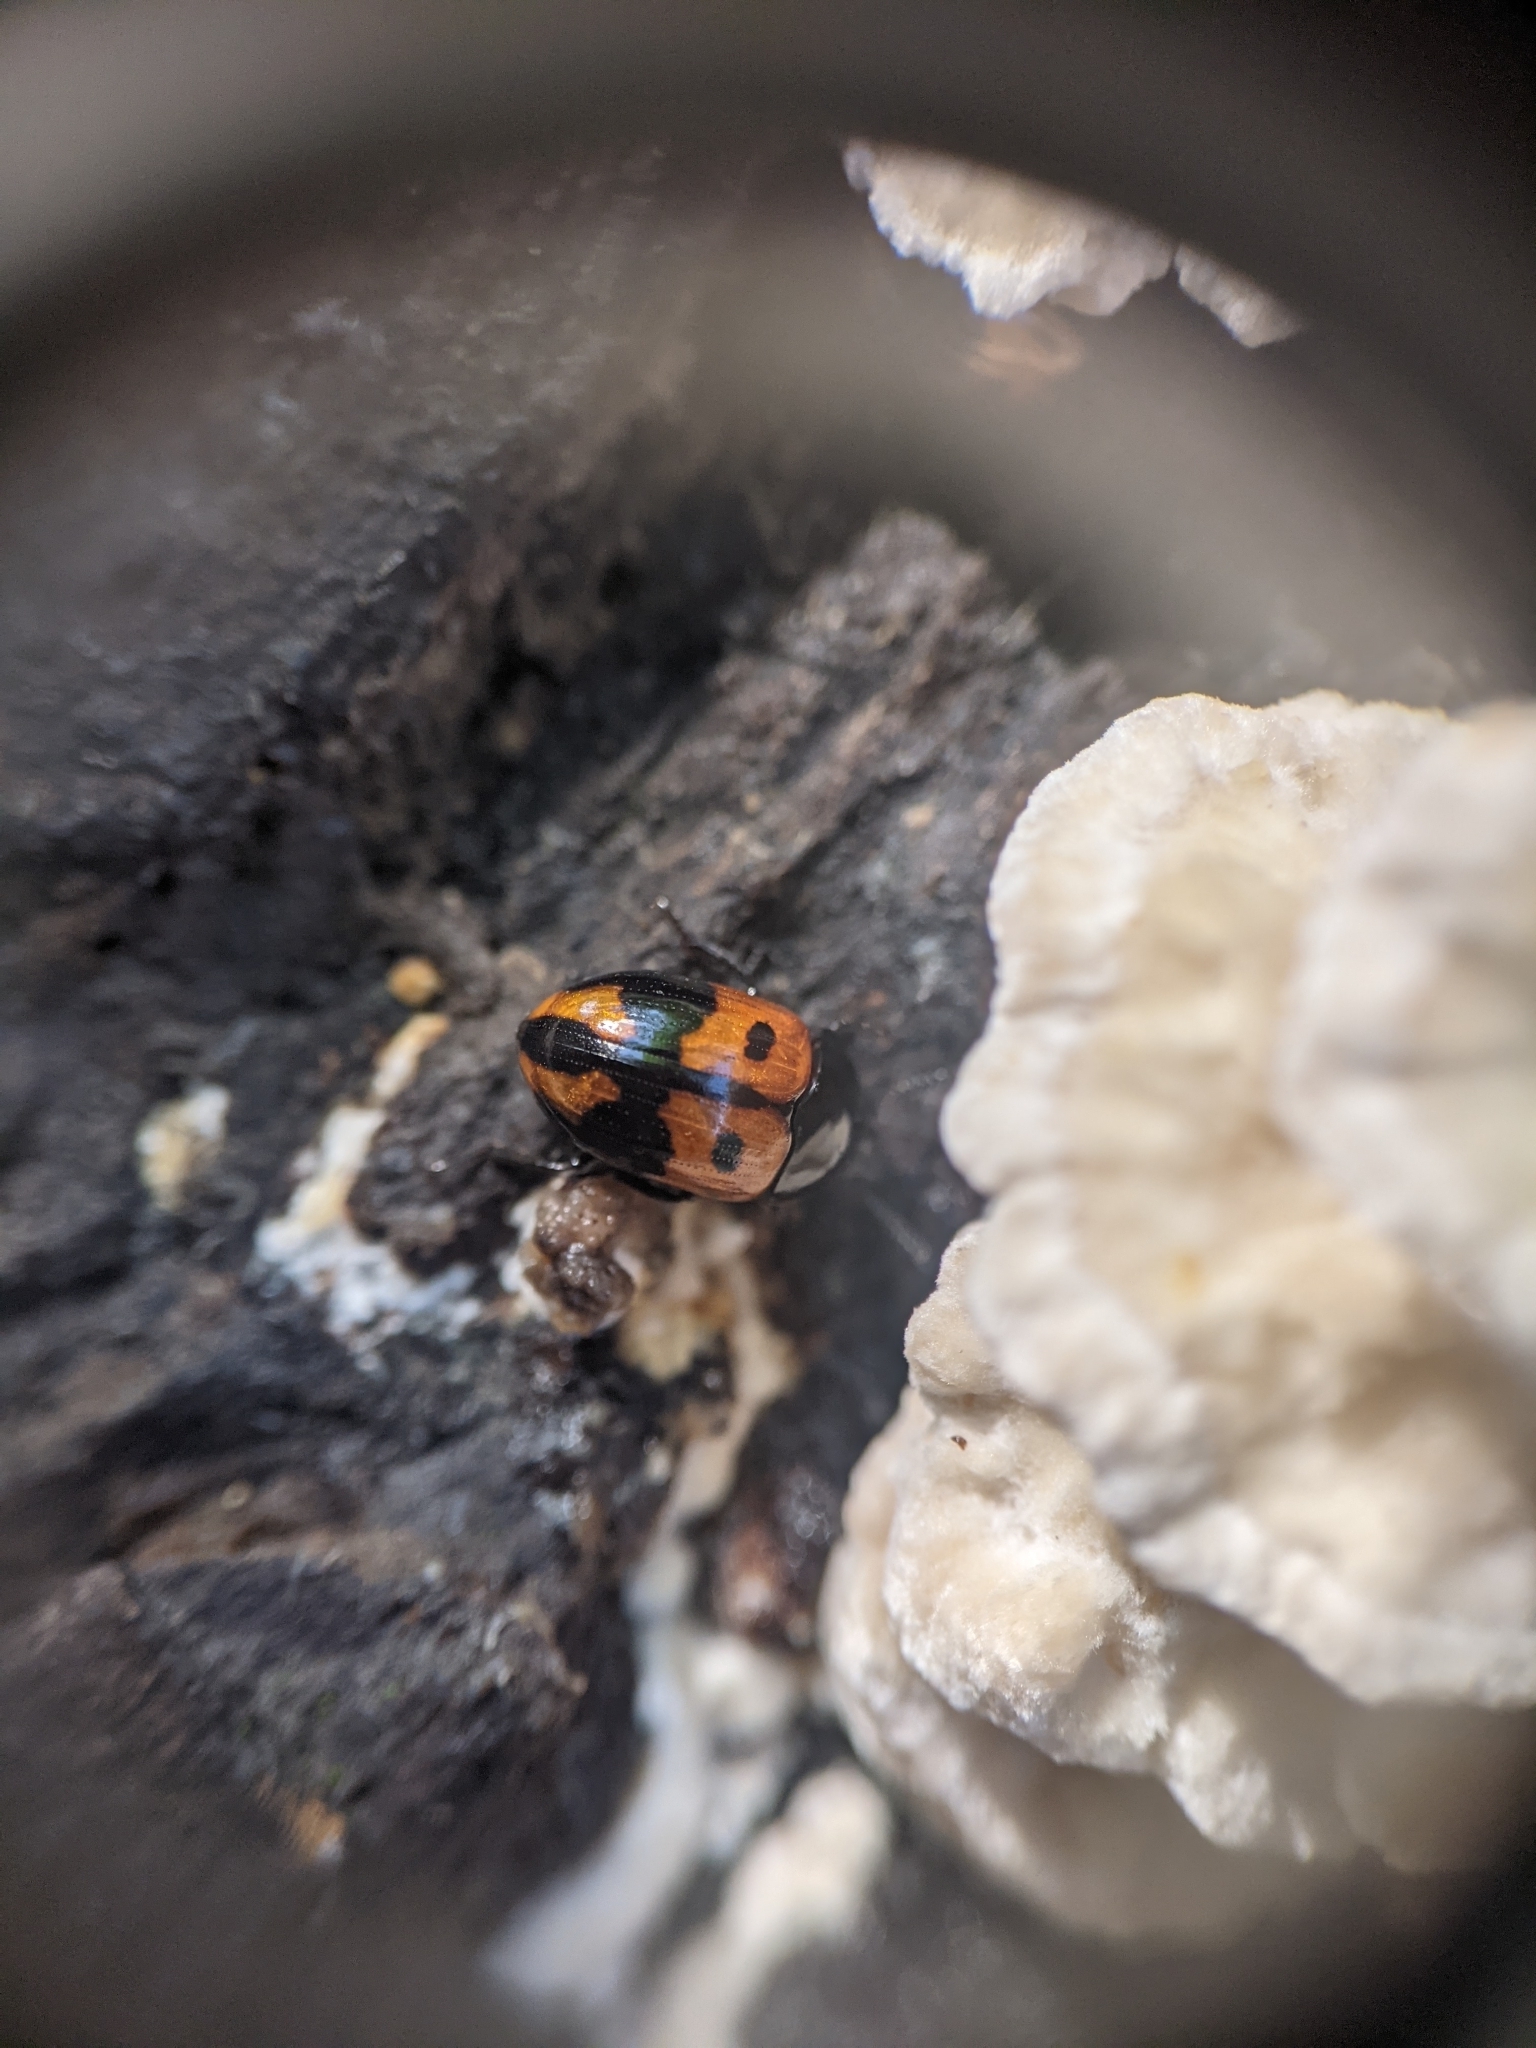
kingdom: Animalia
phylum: Arthropoda
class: Insecta
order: Coleoptera
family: Tenebrionidae
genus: Diaperis
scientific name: Diaperis maculata
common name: Darkling beetle
